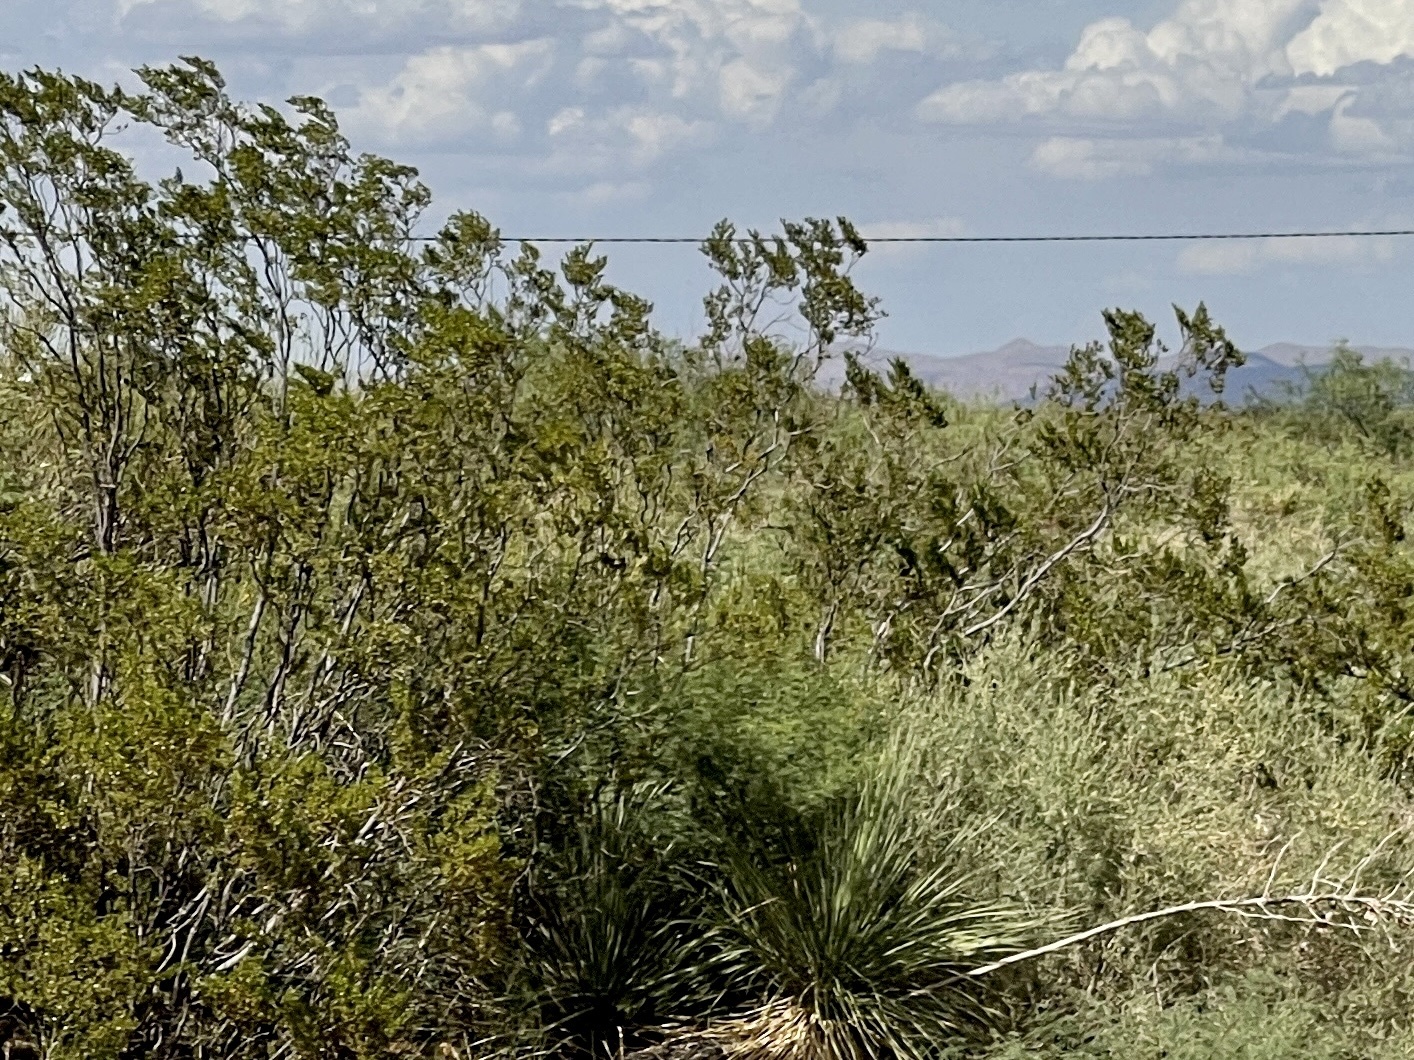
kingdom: Plantae
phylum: Tracheophyta
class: Magnoliopsida
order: Zygophyllales
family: Zygophyllaceae
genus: Larrea
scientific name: Larrea tridentata
